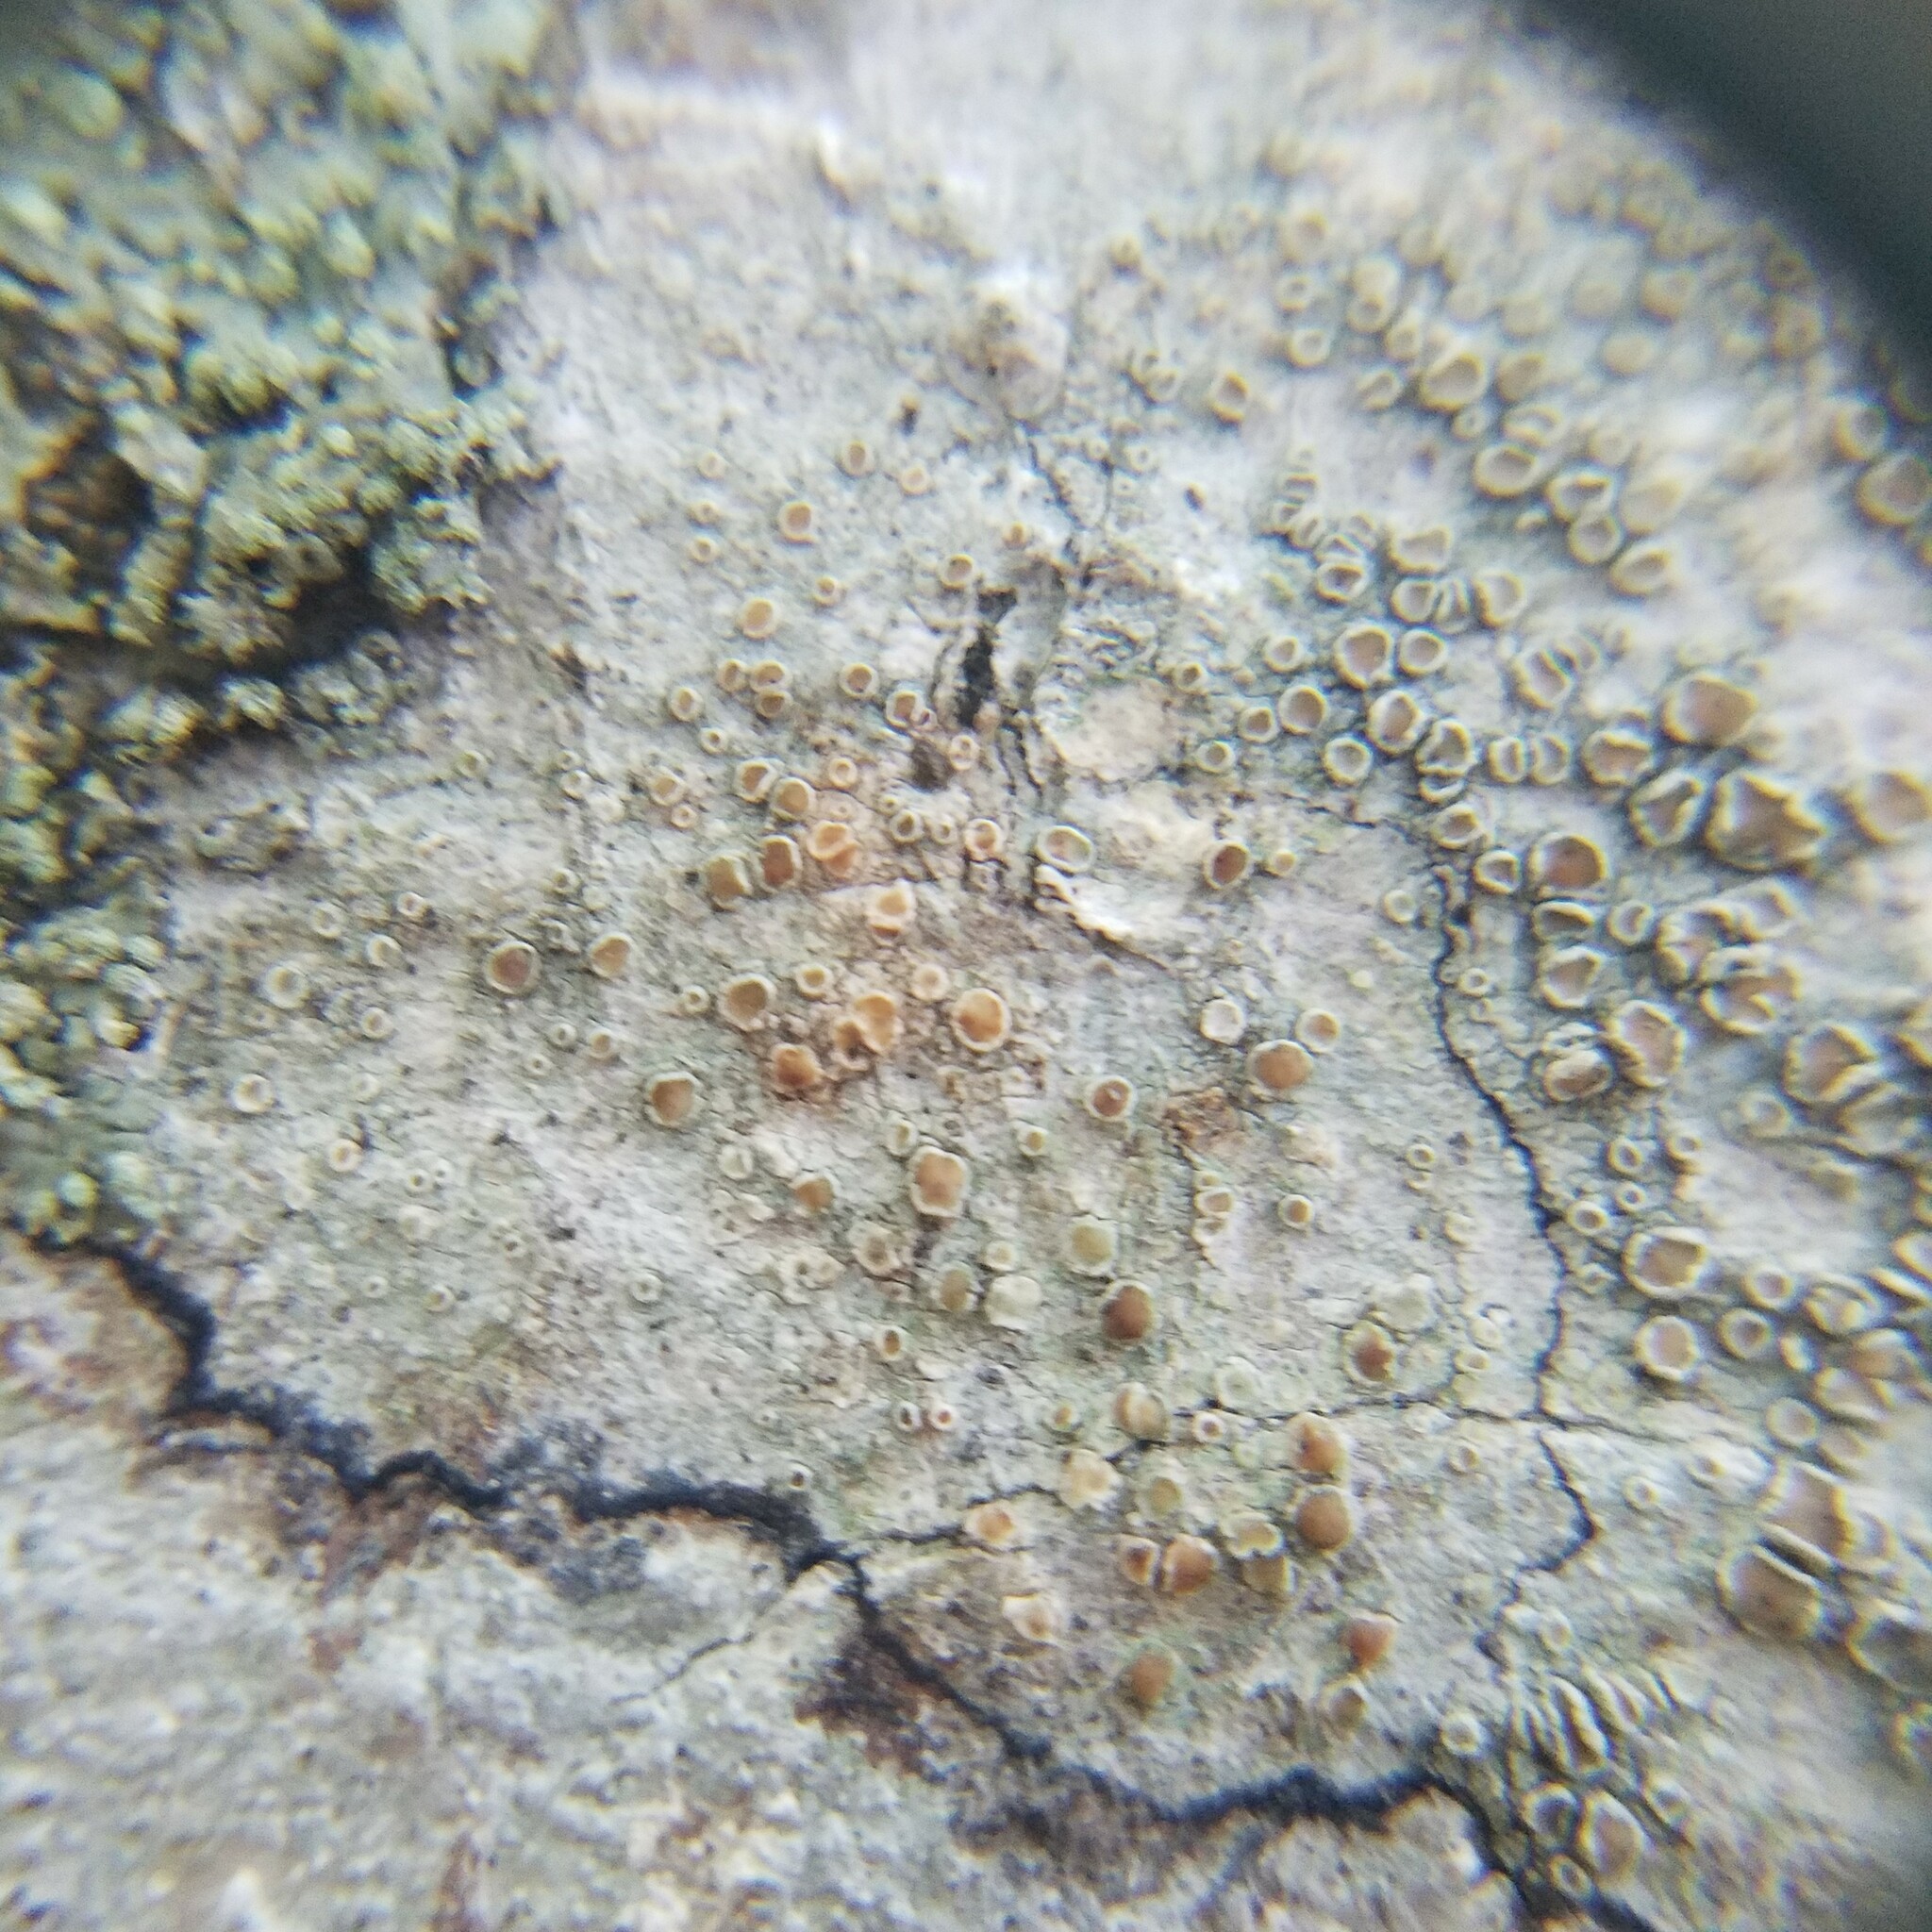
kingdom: Fungi
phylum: Ascomycota
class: Lecanoromycetes
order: Lecanorales
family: Lecanoraceae
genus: Lecanora
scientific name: Lecanora hybocarpa
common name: Bumpy rim-lichen
